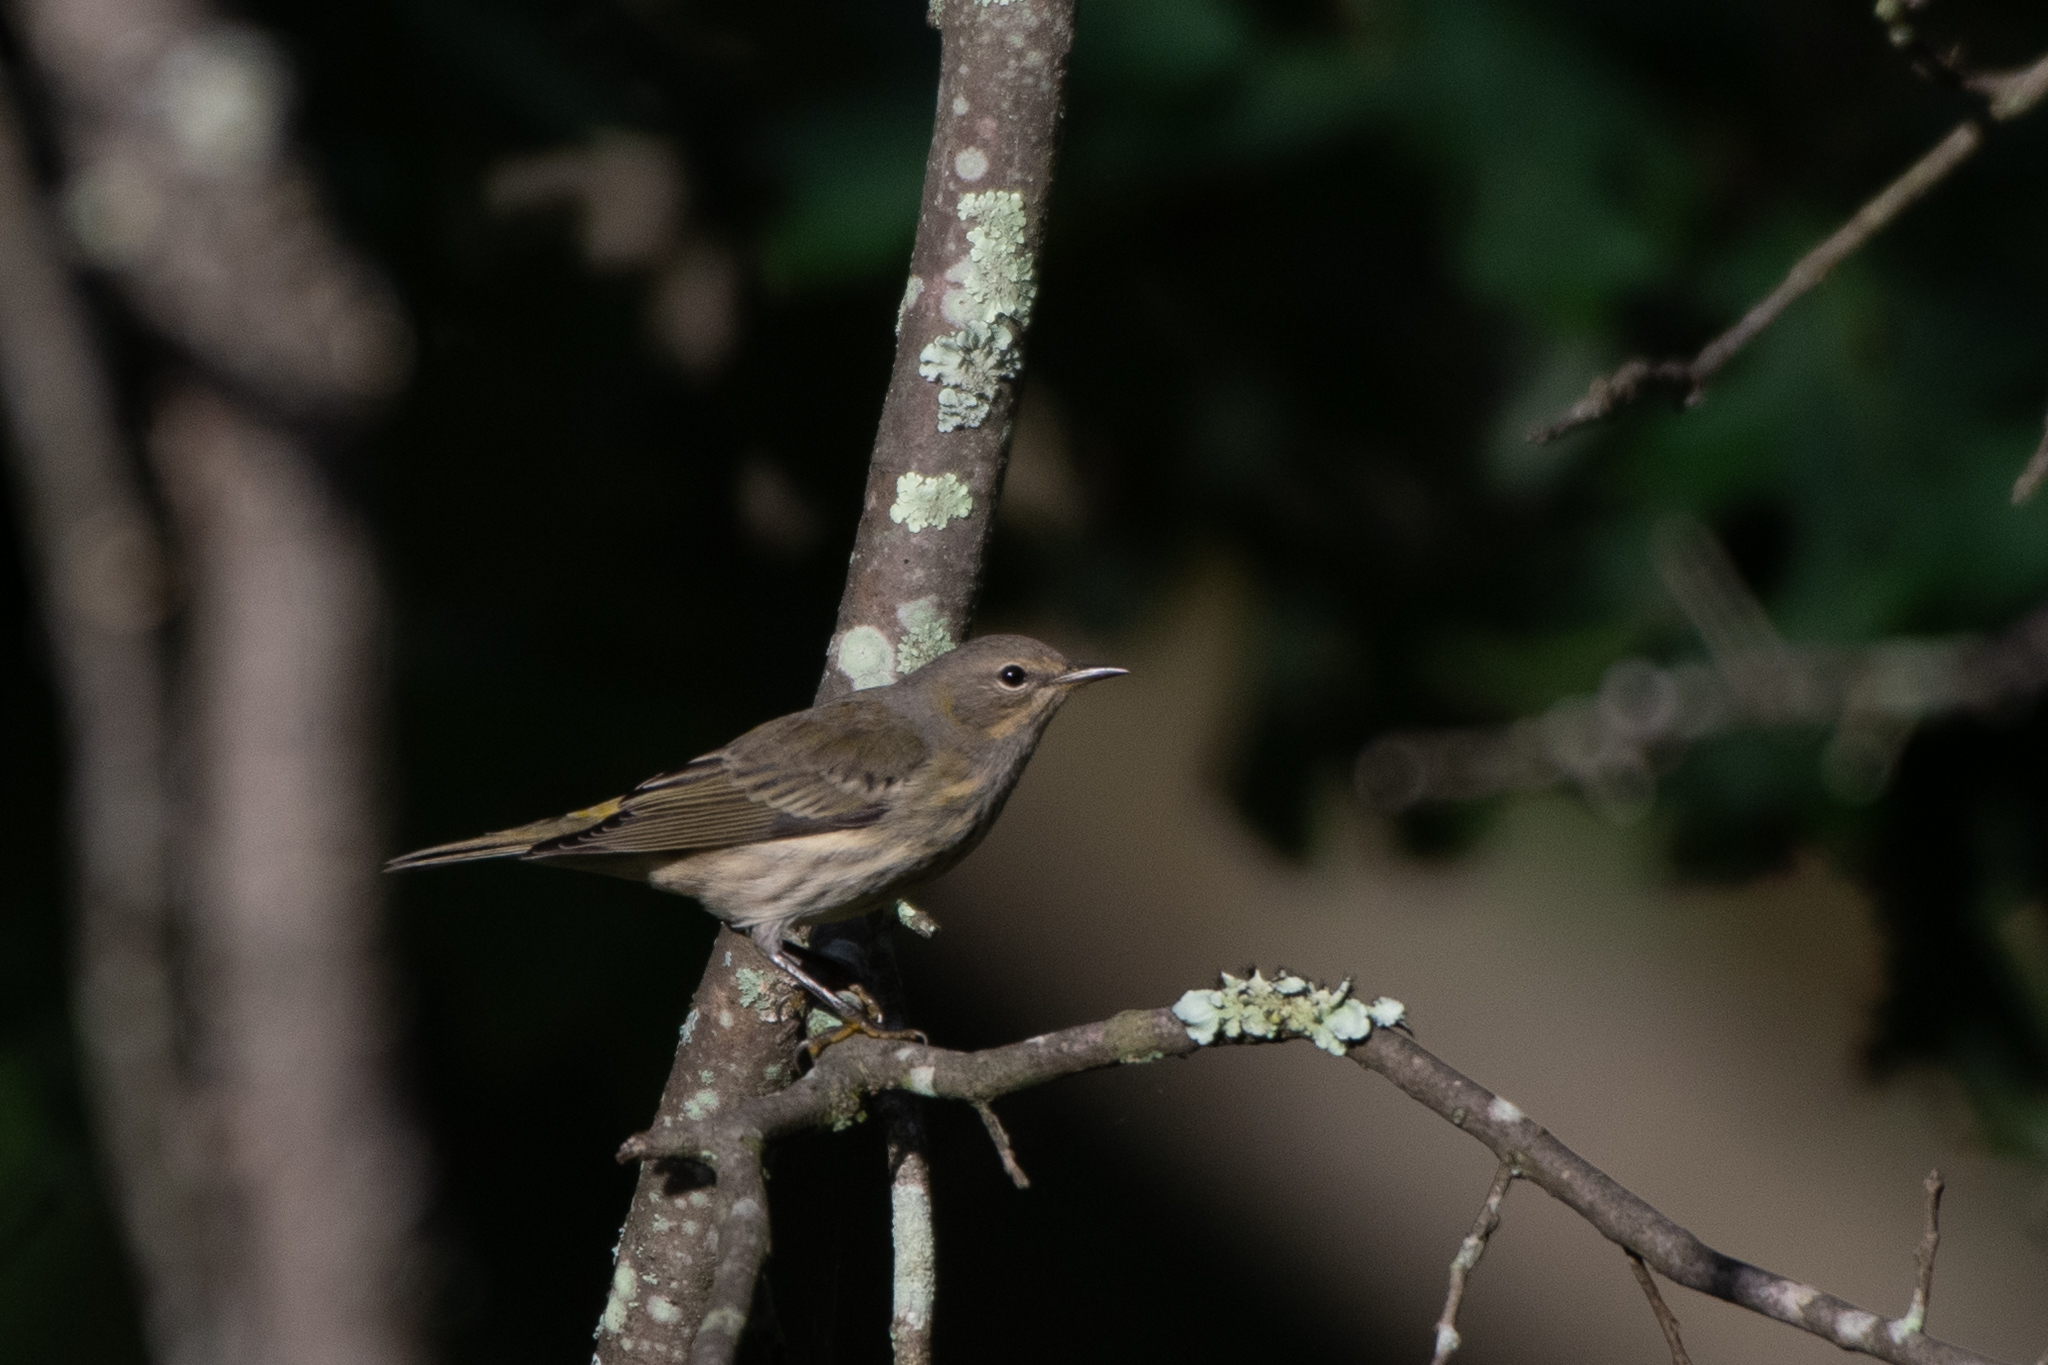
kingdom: Animalia
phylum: Chordata
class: Aves
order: Passeriformes
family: Parulidae
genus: Setophaga
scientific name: Setophaga tigrina
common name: Cape may warbler
